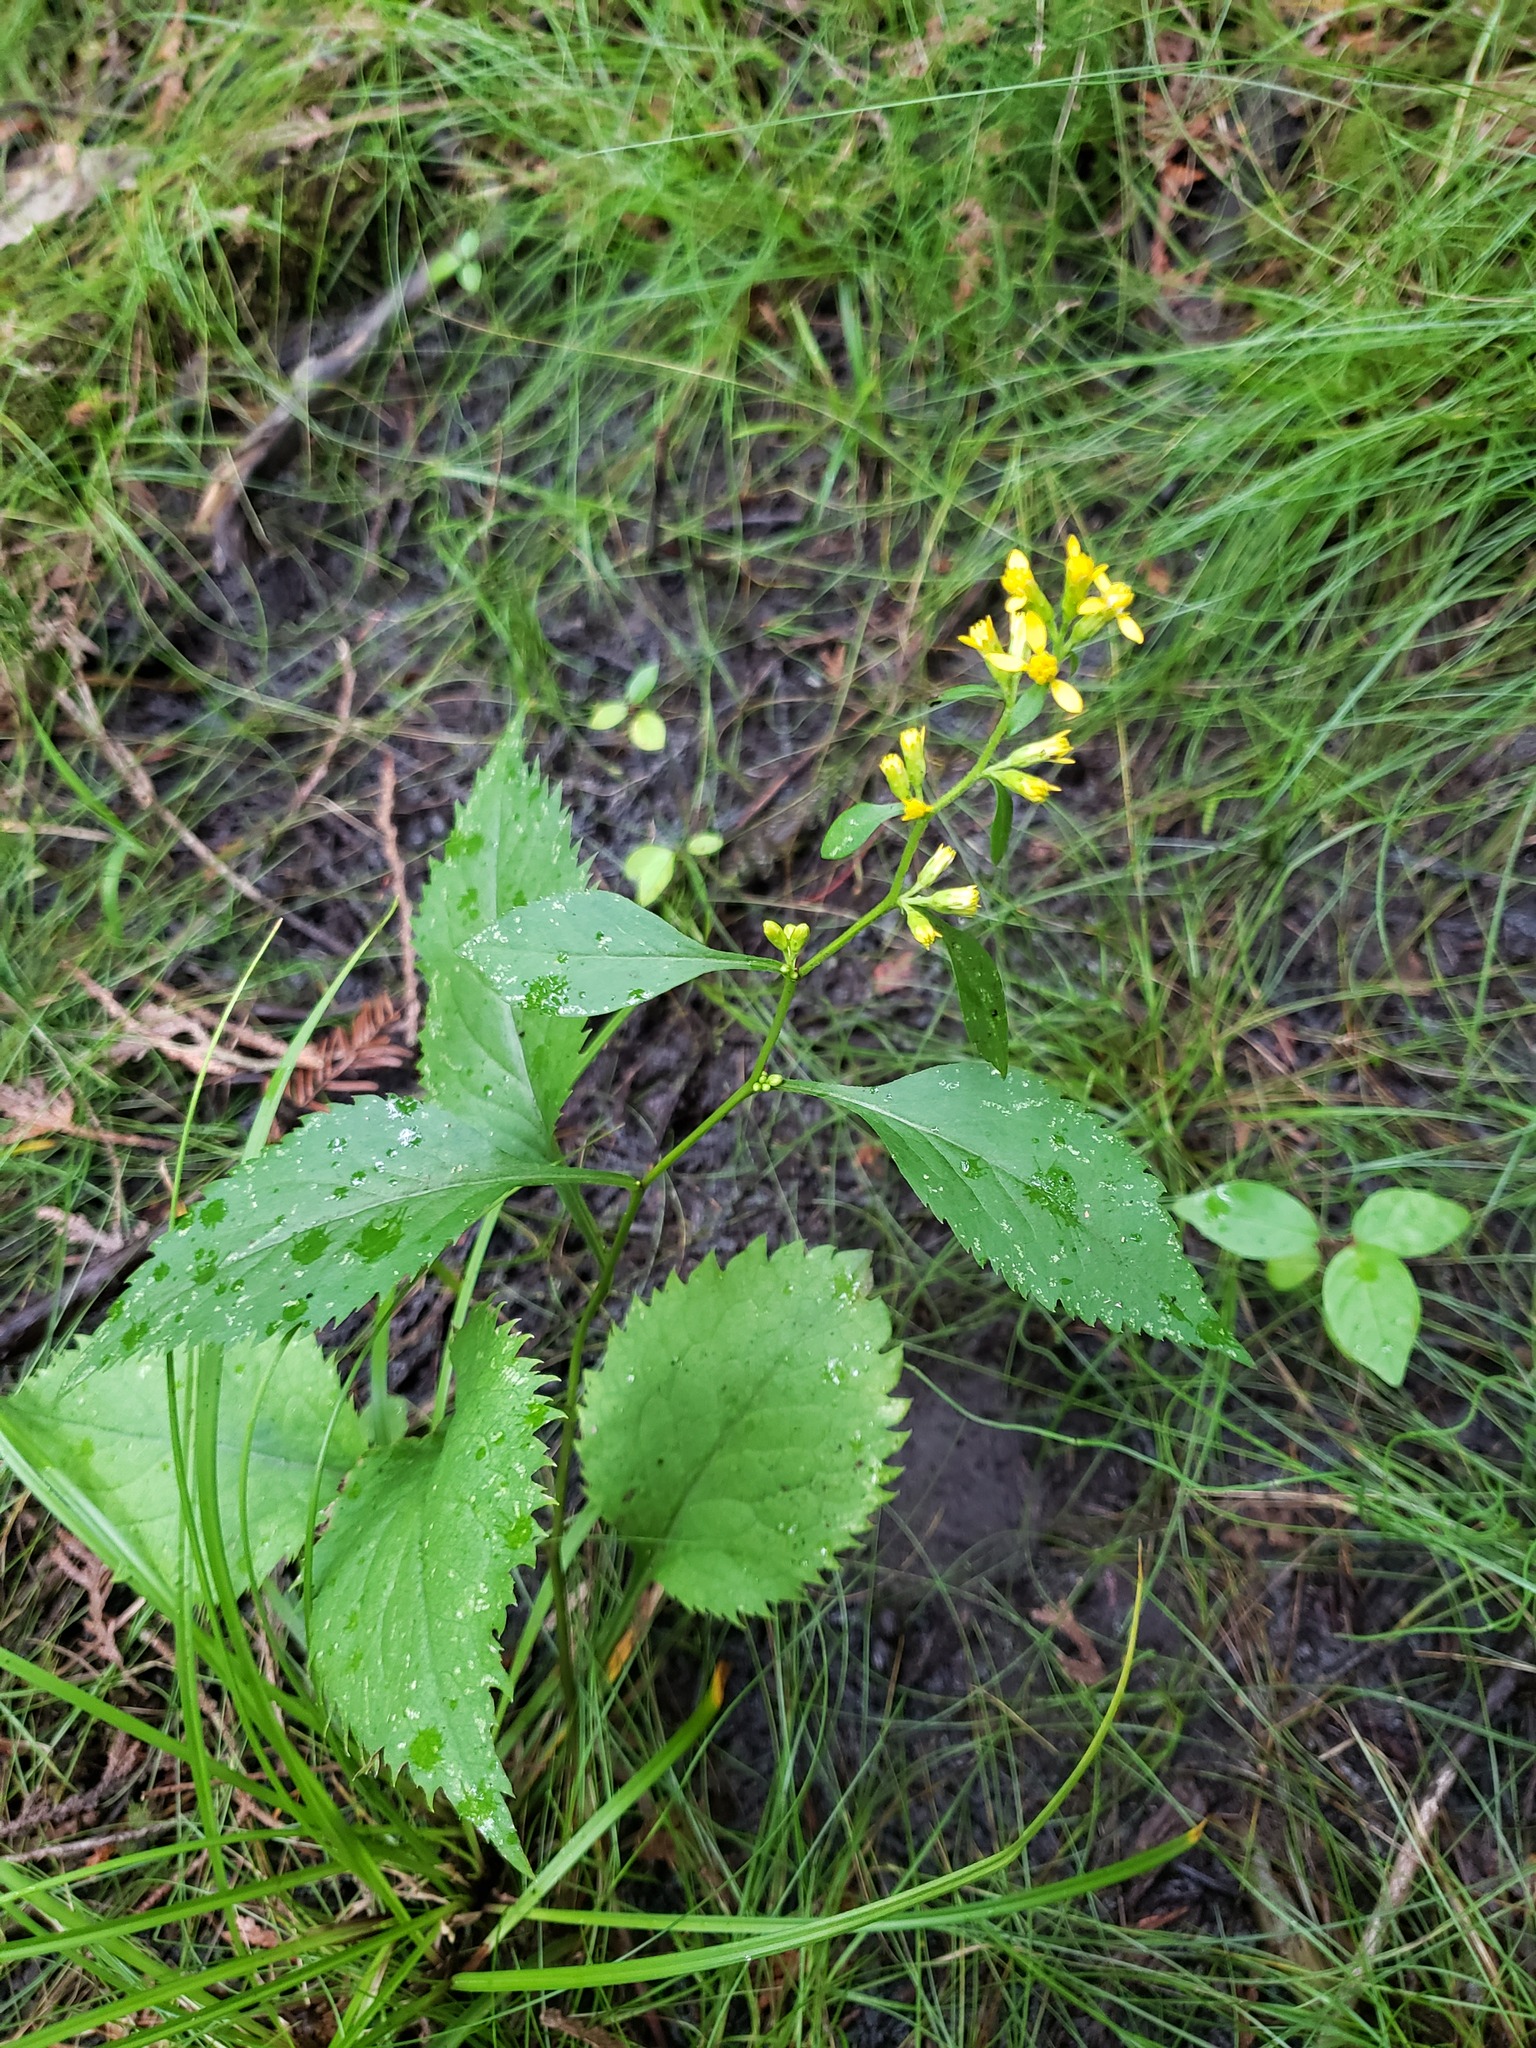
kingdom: Plantae
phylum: Tracheophyta
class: Magnoliopsida
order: Asterales
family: Asteraceae
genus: Solidago
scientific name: Solidago flexicaulis
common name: Zig-zag goldenrod
